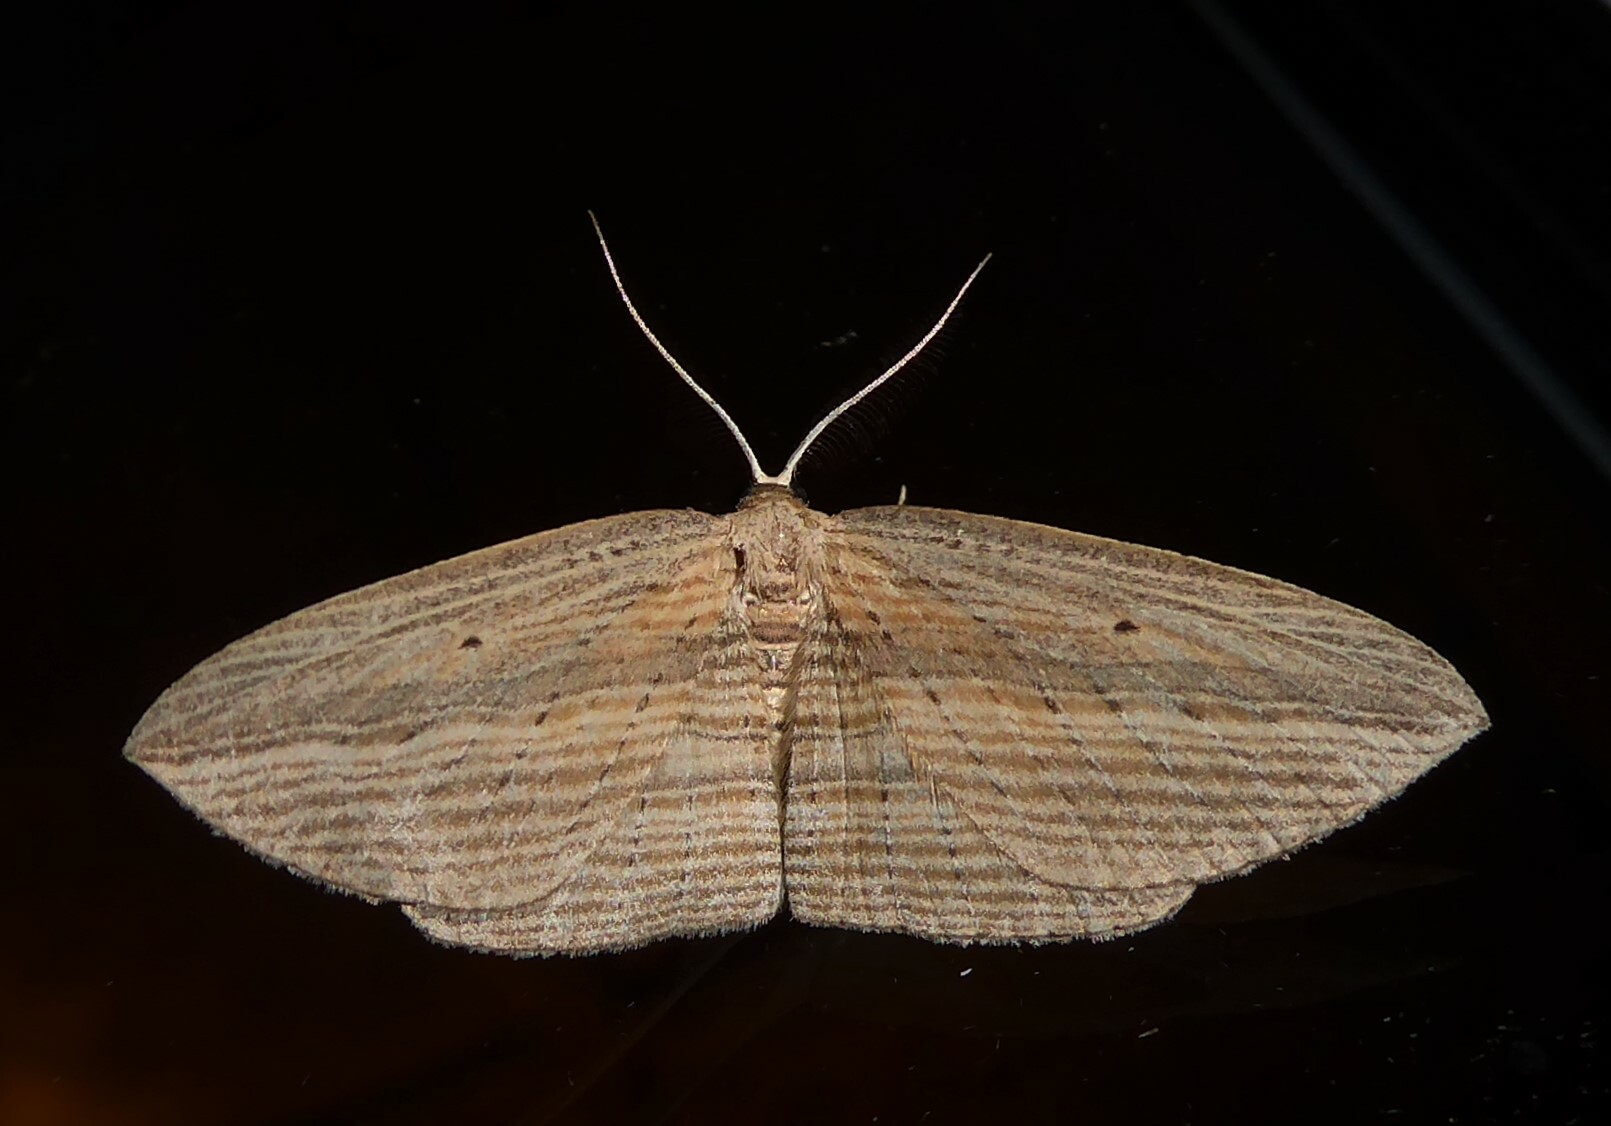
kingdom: Animalia
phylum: Arthropoda
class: Insecta
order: Lepidoptera
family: Geometridae
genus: Epiphryne
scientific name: Epiphryne verriculata
